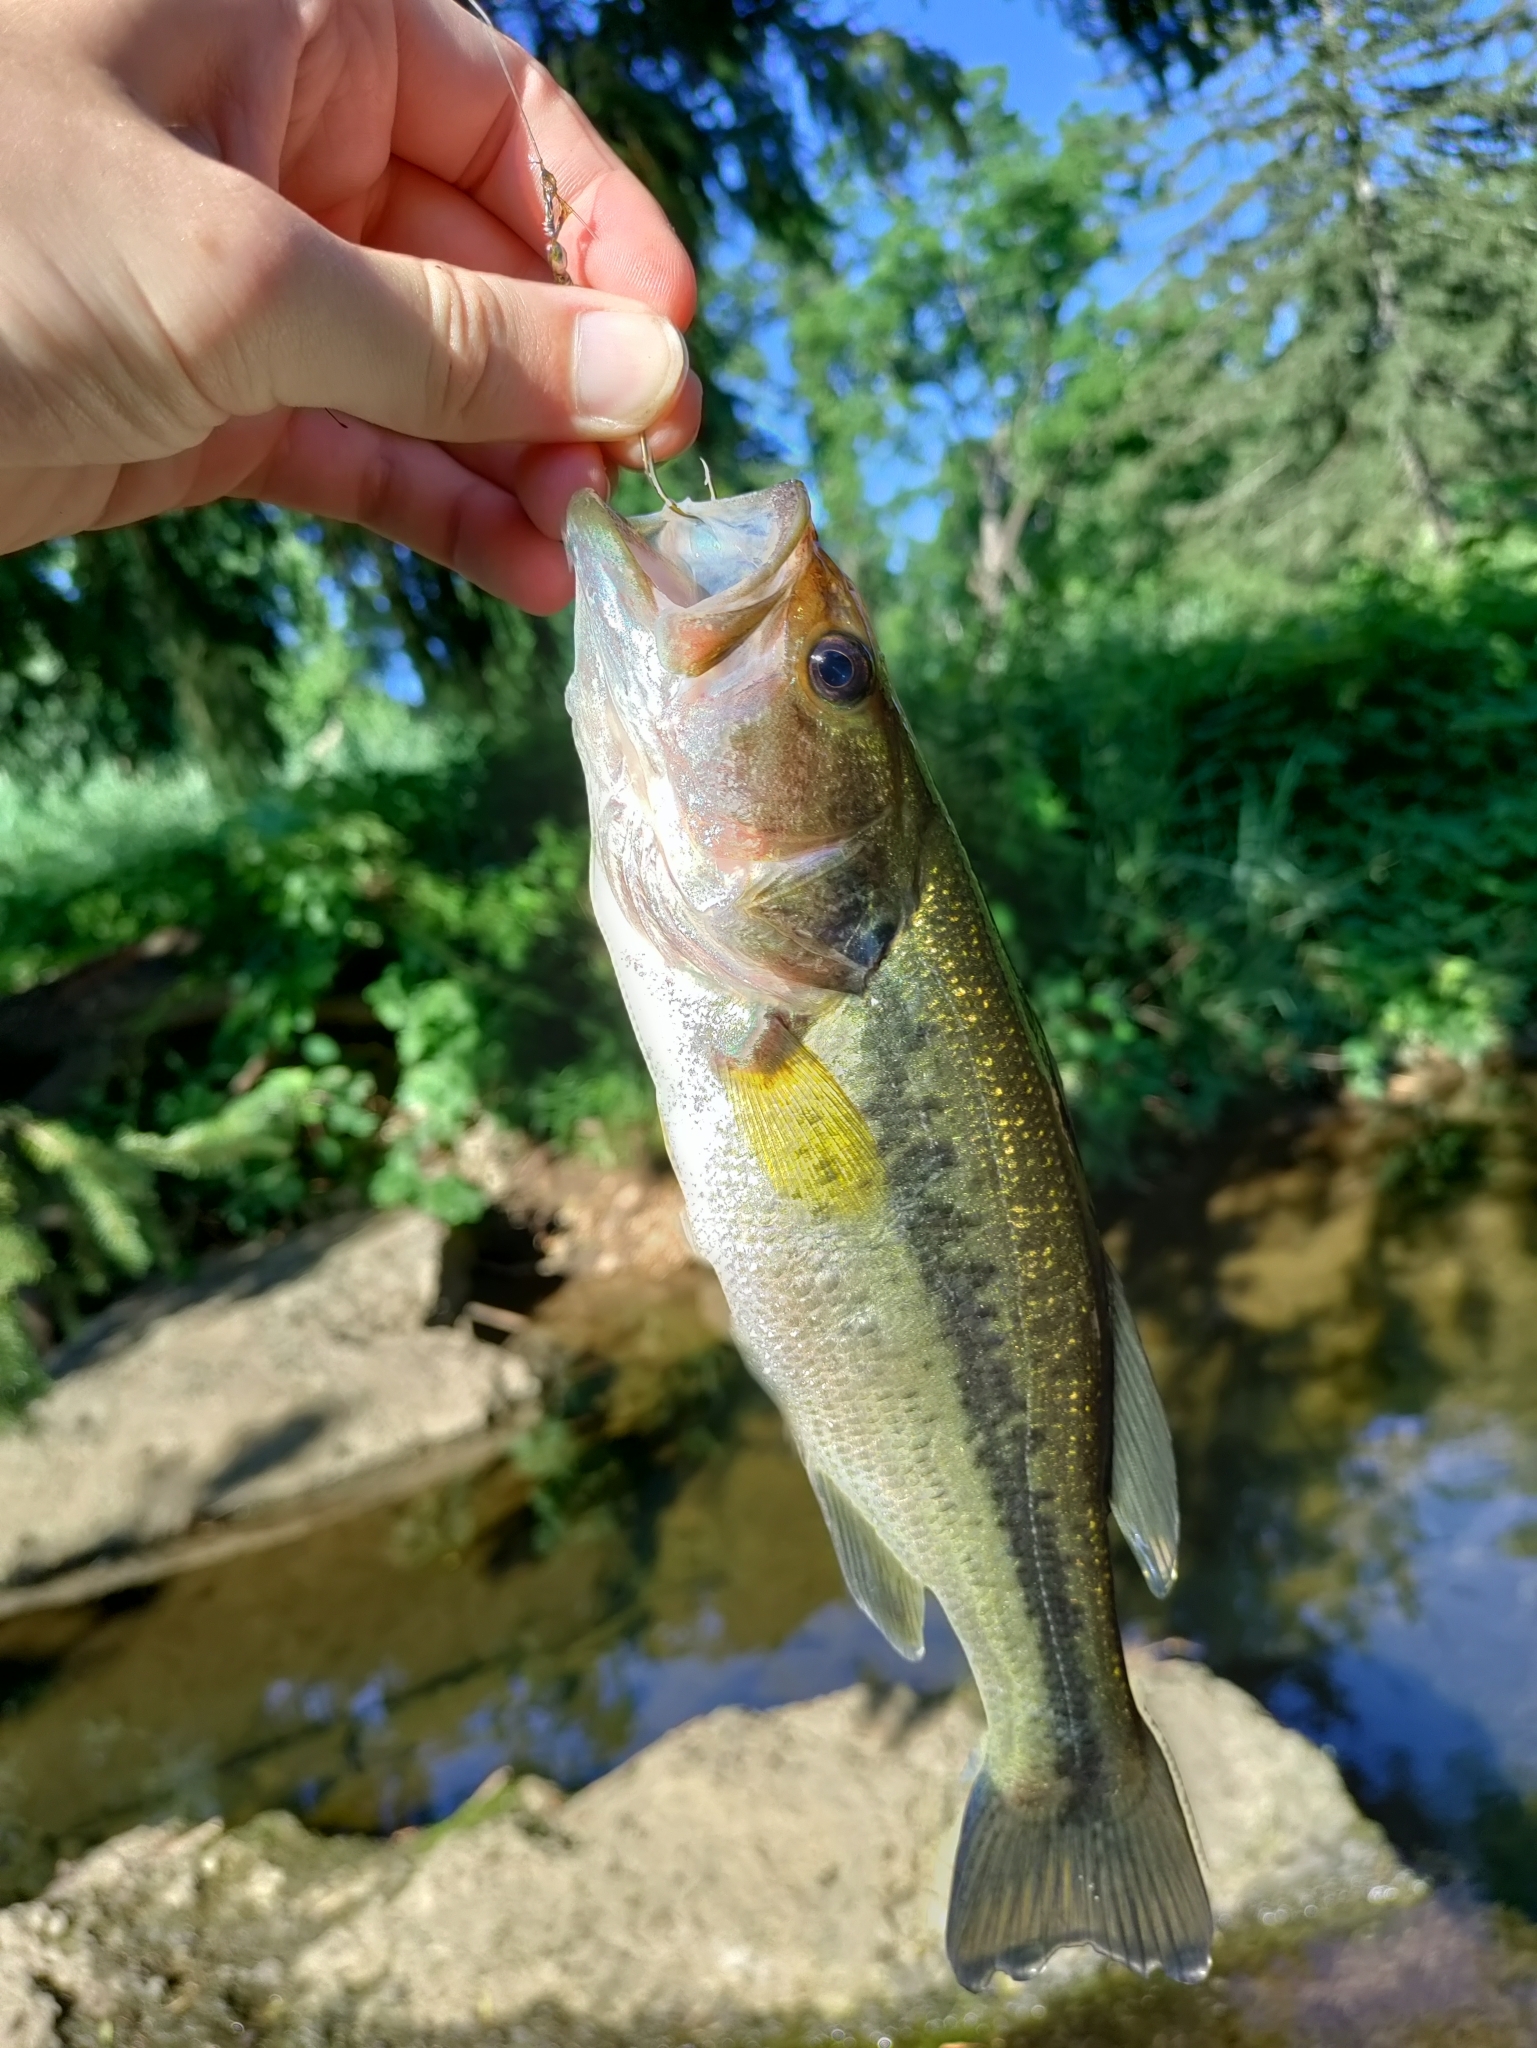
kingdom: Animalia
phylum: Chordata
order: Perciformes
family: Centrarchidae
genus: Micropterus
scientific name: Micropterus
